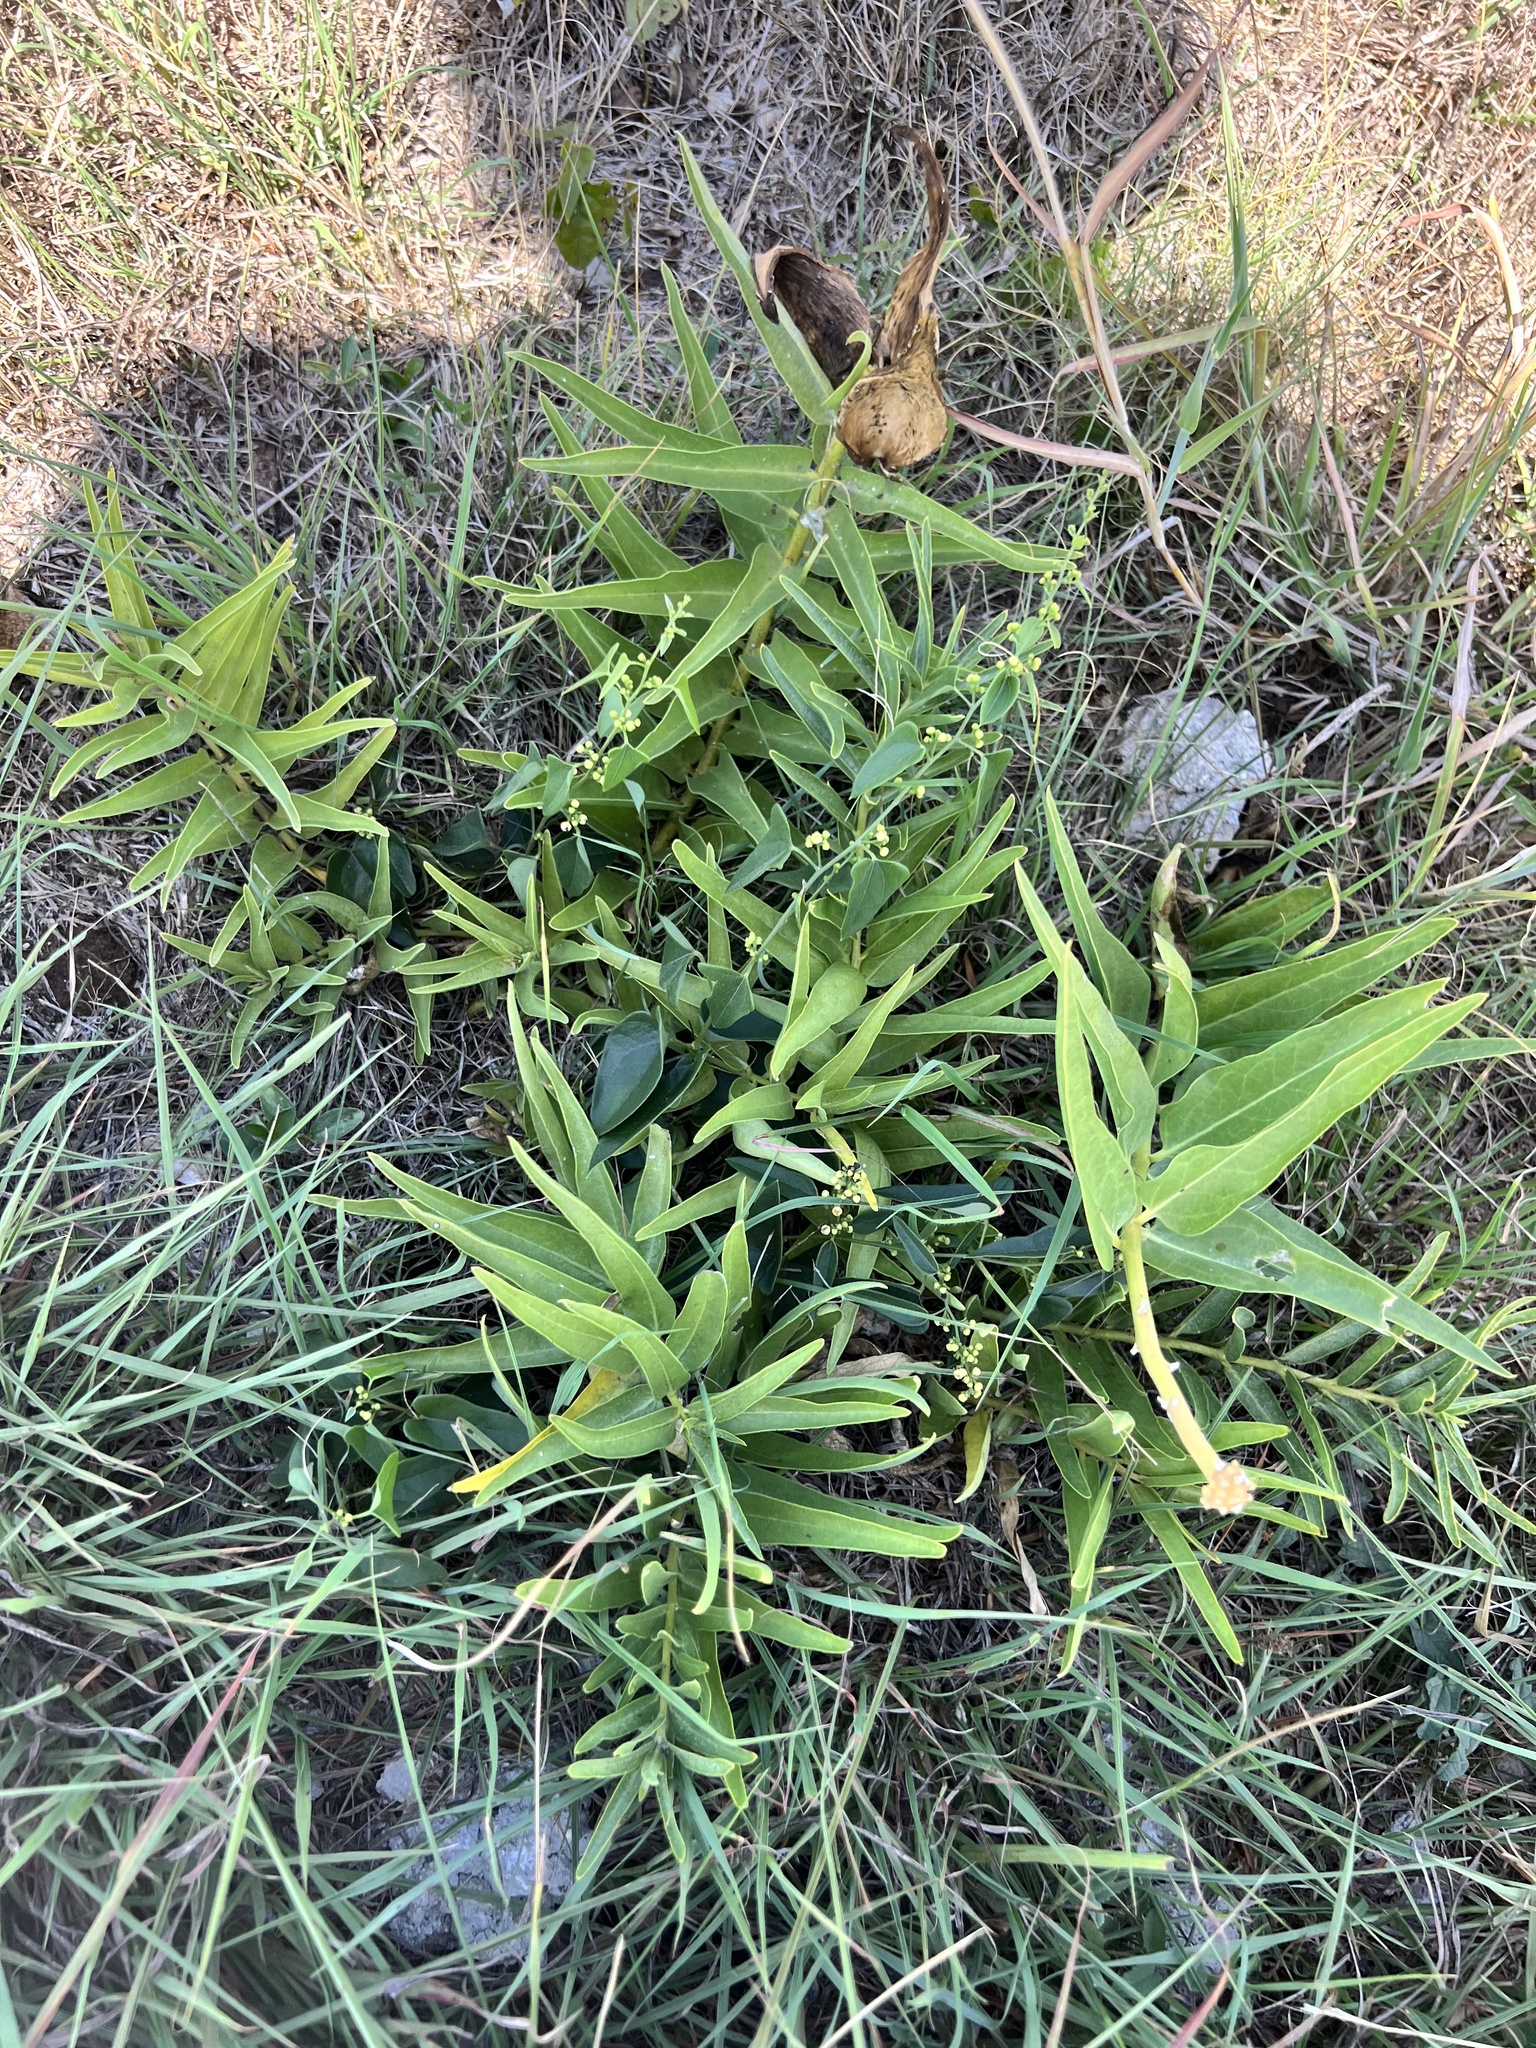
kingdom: Plantae
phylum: Tracheophyta
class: Magnoliopsida
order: Gentianales
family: Apocynaceae
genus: Asclepias
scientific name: Asclepias asperula
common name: Antelope horns
